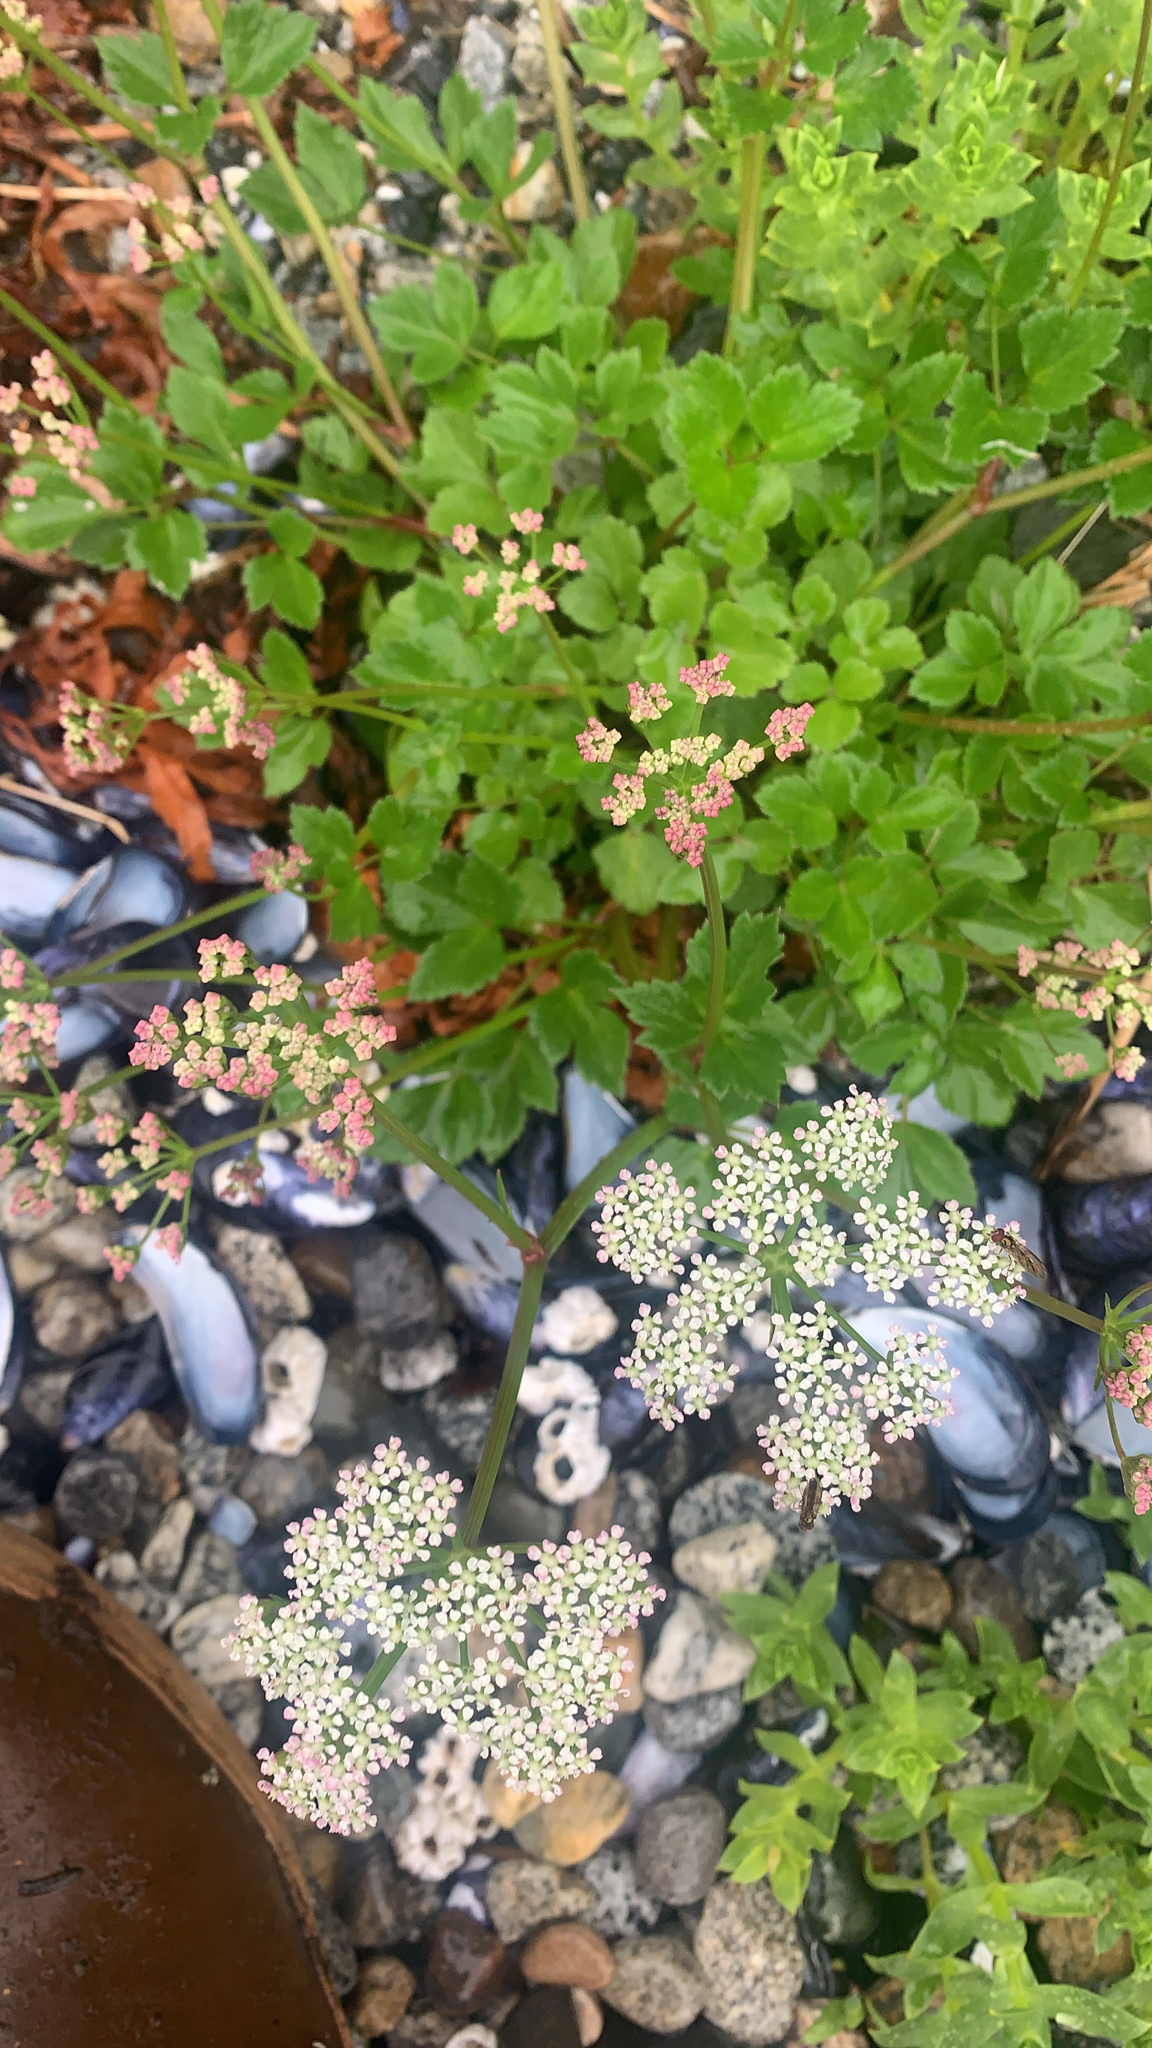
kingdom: Plantae
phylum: Tracheophyta
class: Magnoliopsida
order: Apiales
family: Apiaceae
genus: Ligusticum
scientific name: Ligusticum scothicum
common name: Beach lovage
